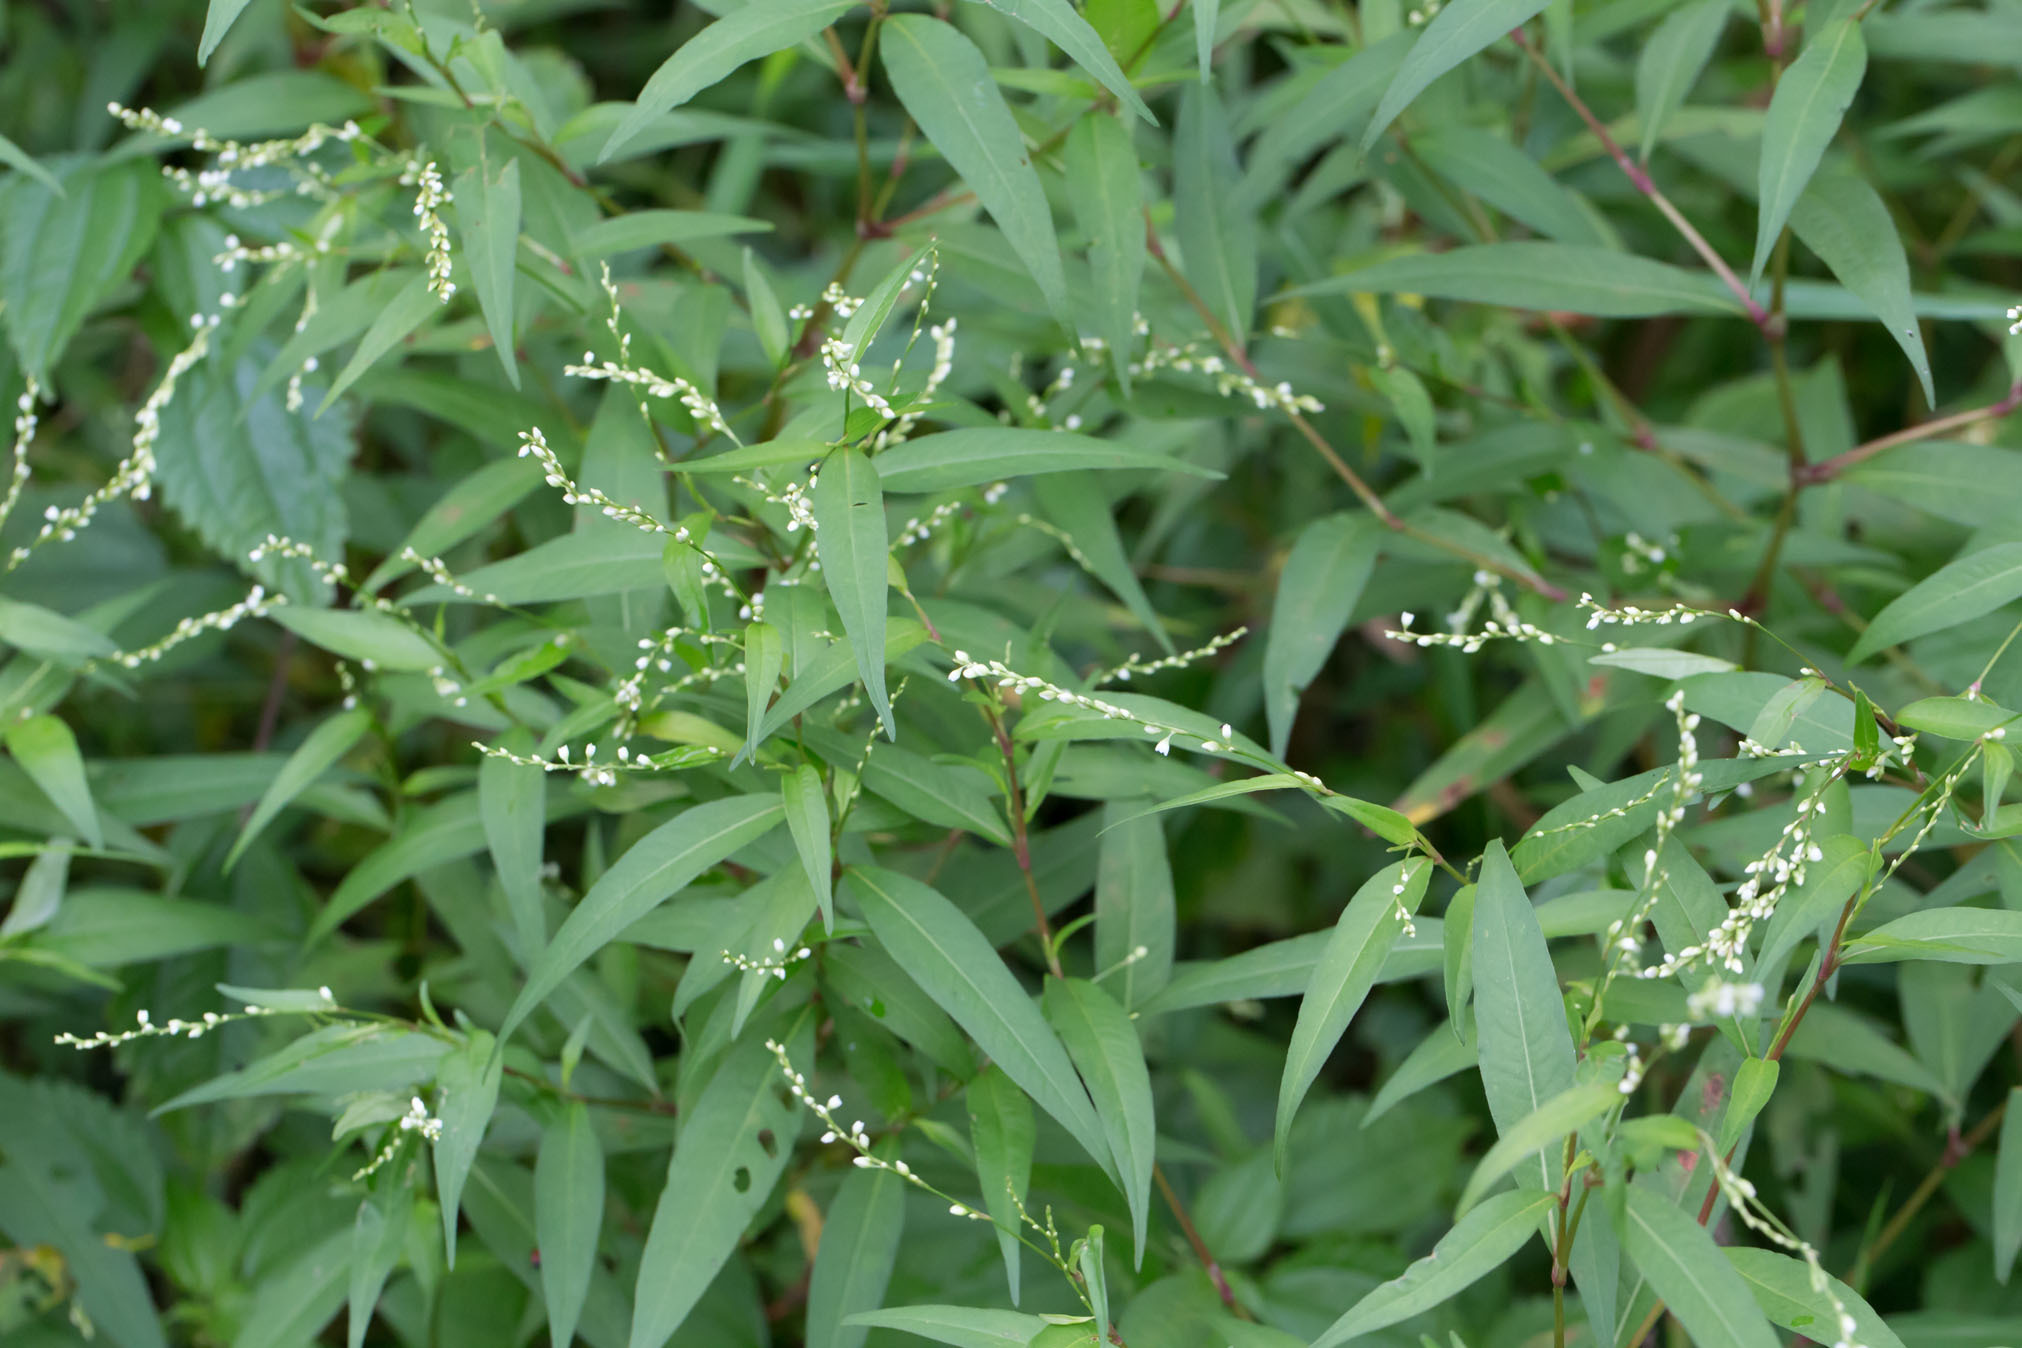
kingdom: Plantae
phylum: Tracheophyta
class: Magnoliopsida
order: Caryophyllales
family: Polygonaceae
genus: Persicaria
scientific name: Persicaria punctata
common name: Dotted smartweed
